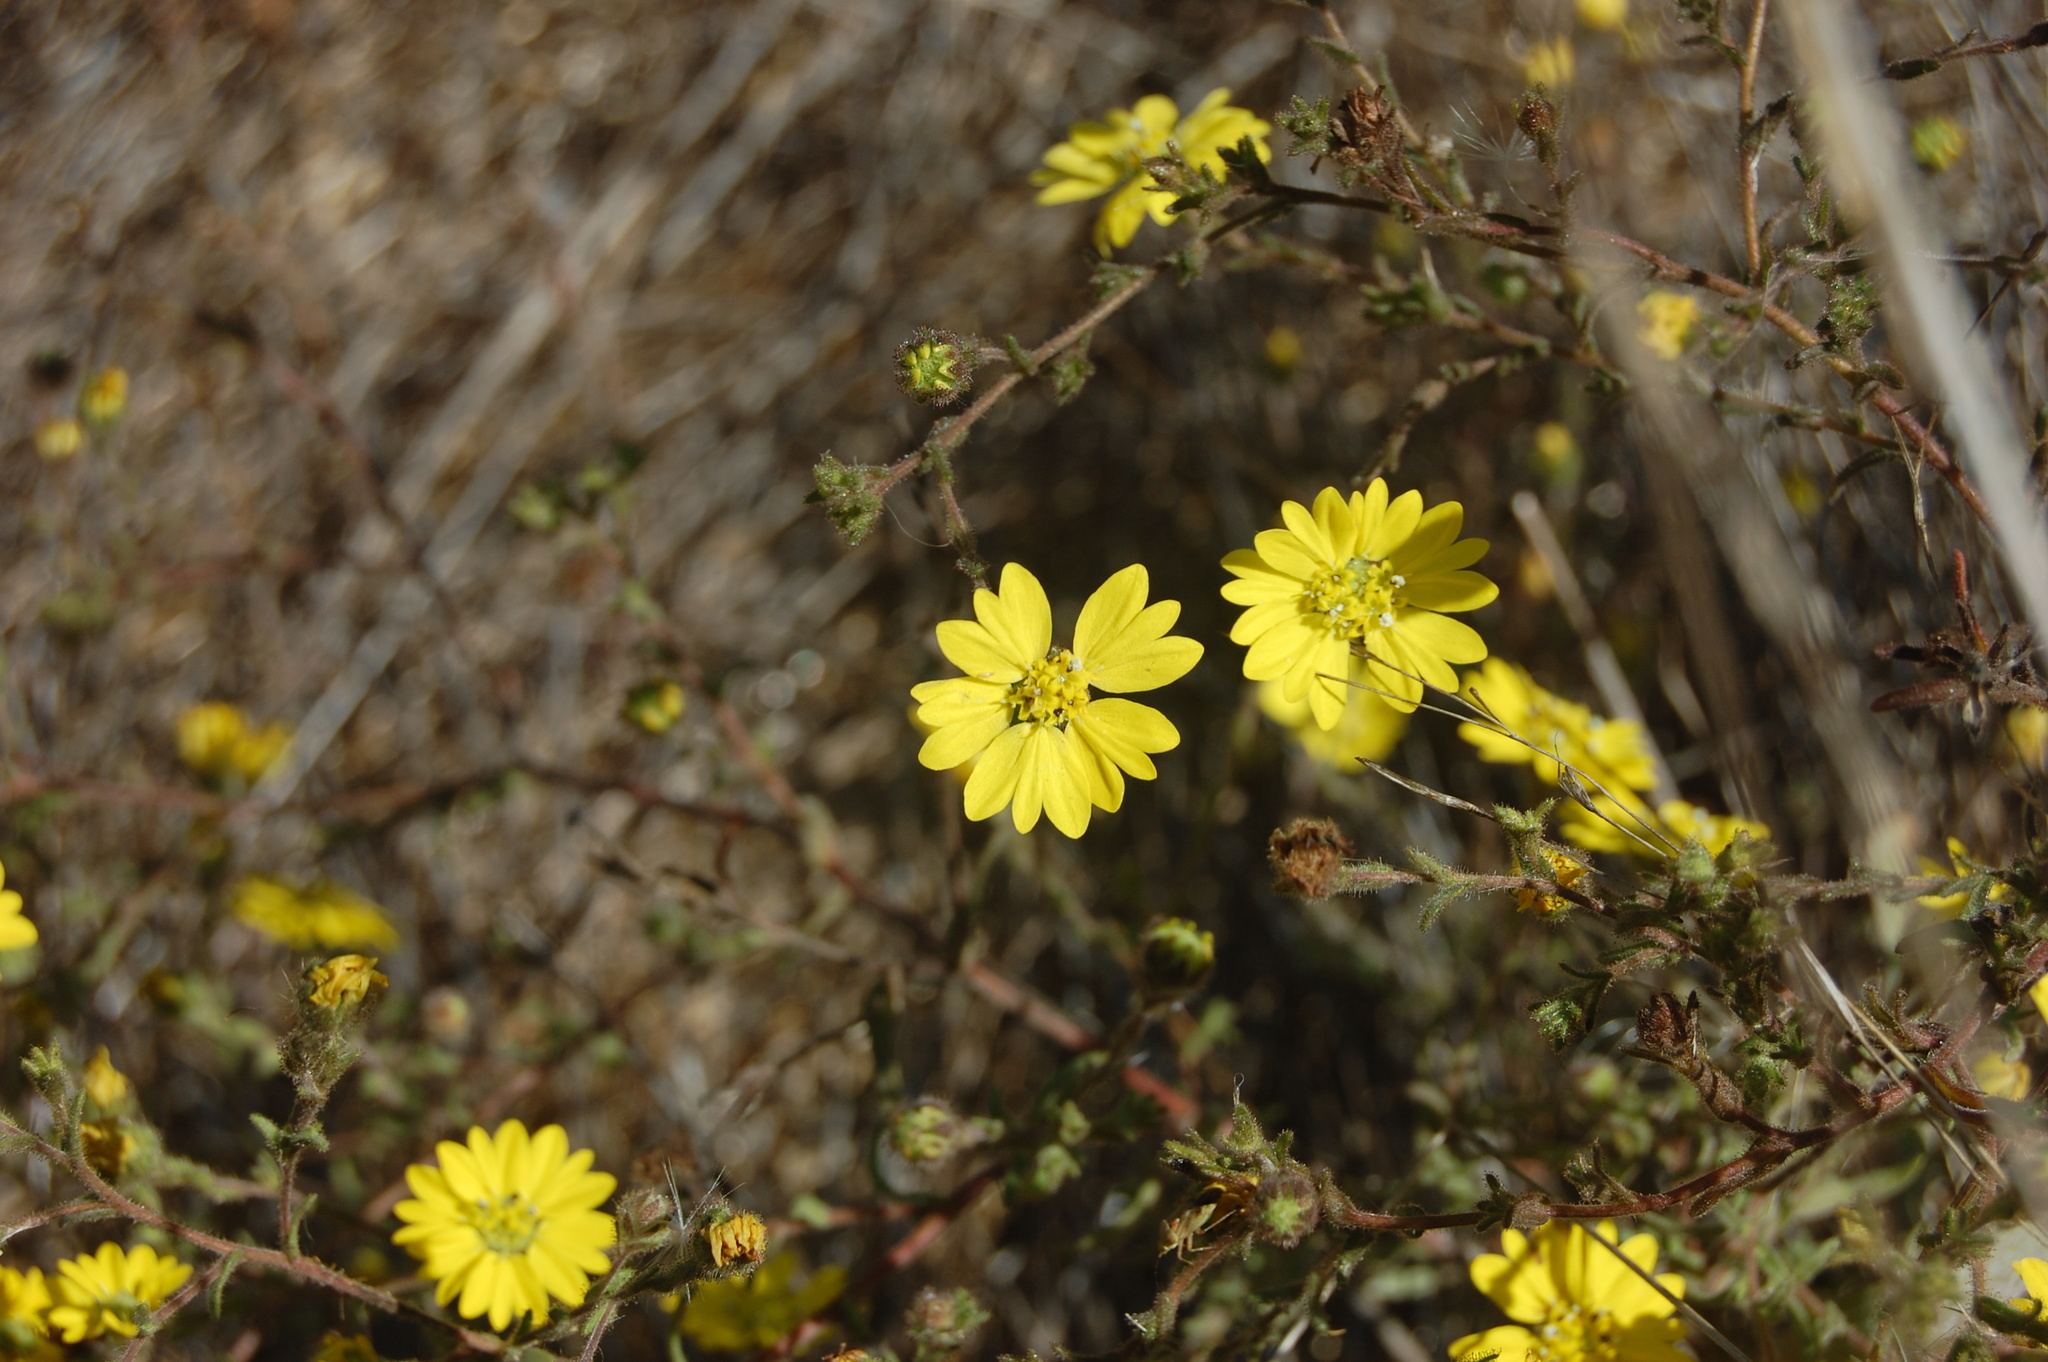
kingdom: Plantae
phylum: Tracheophyta
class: Magnoliopsida
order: Asterales
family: Asteraceae
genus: Hemizonia
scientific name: Hemizonia congesta
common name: Hayfield tarweed
